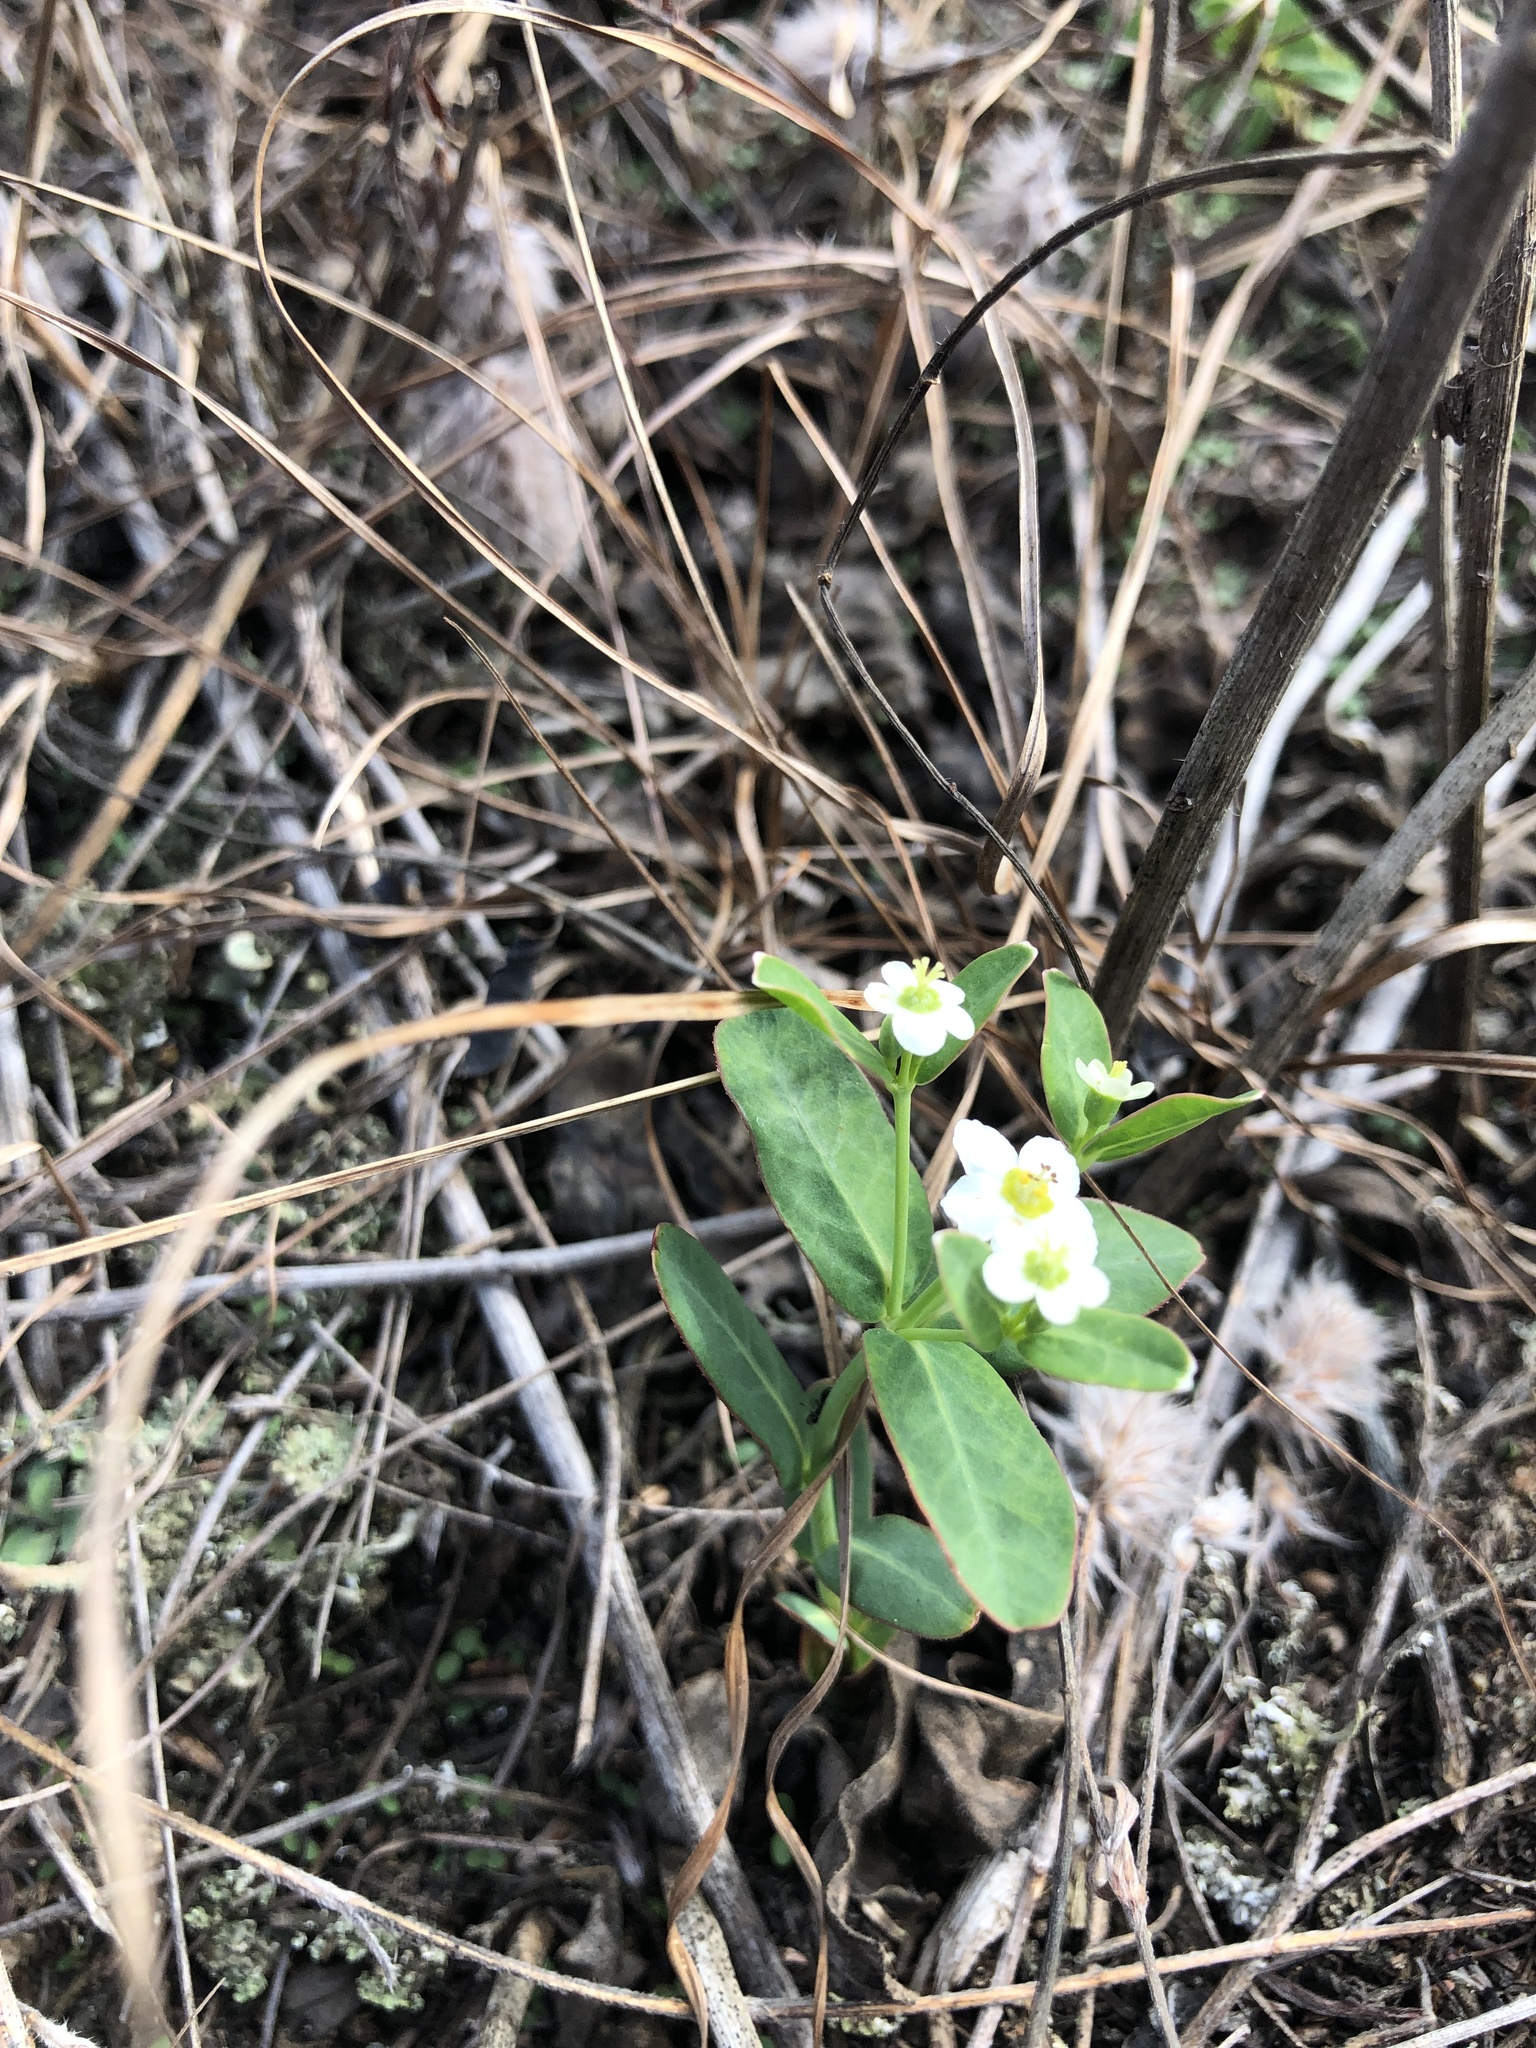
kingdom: Plantae
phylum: Tracheophyta
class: Magnoliopsida
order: Malpighiales
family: Euphorbiaceae
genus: Euphorbia
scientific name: Euphorbia corollata
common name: Flowering spurge
